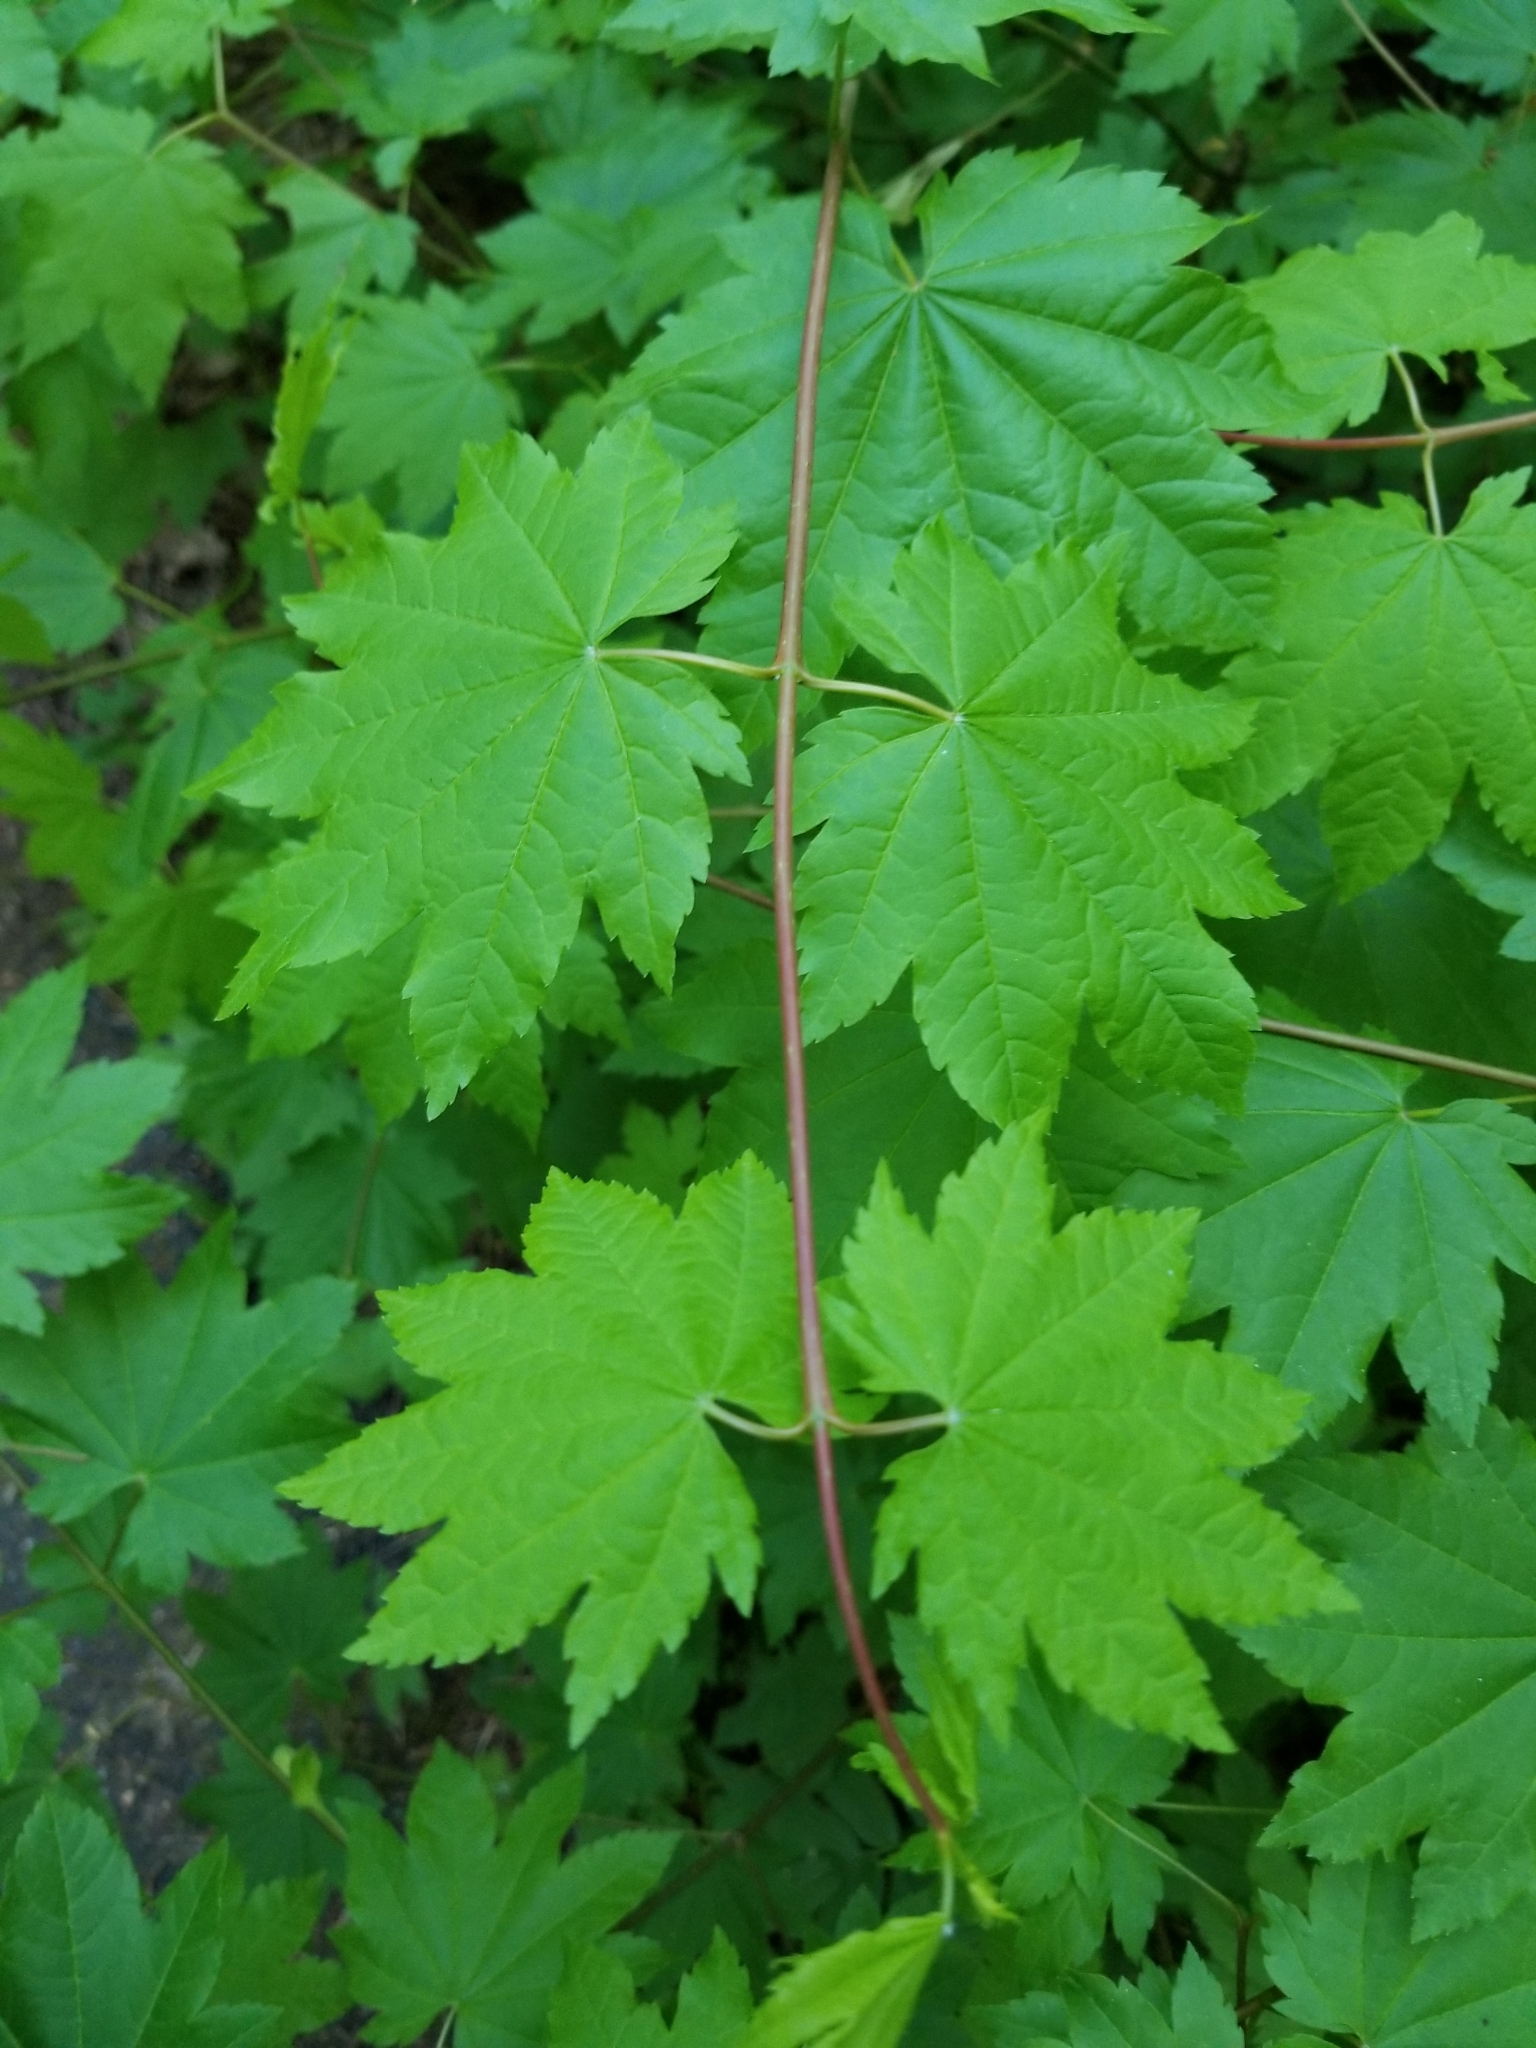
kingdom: Plantae
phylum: Tracheophyta
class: Magnoliopsida
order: Sapindales
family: Sapindaceae
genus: Acer
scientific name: Acer circinatum
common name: Vine maple
